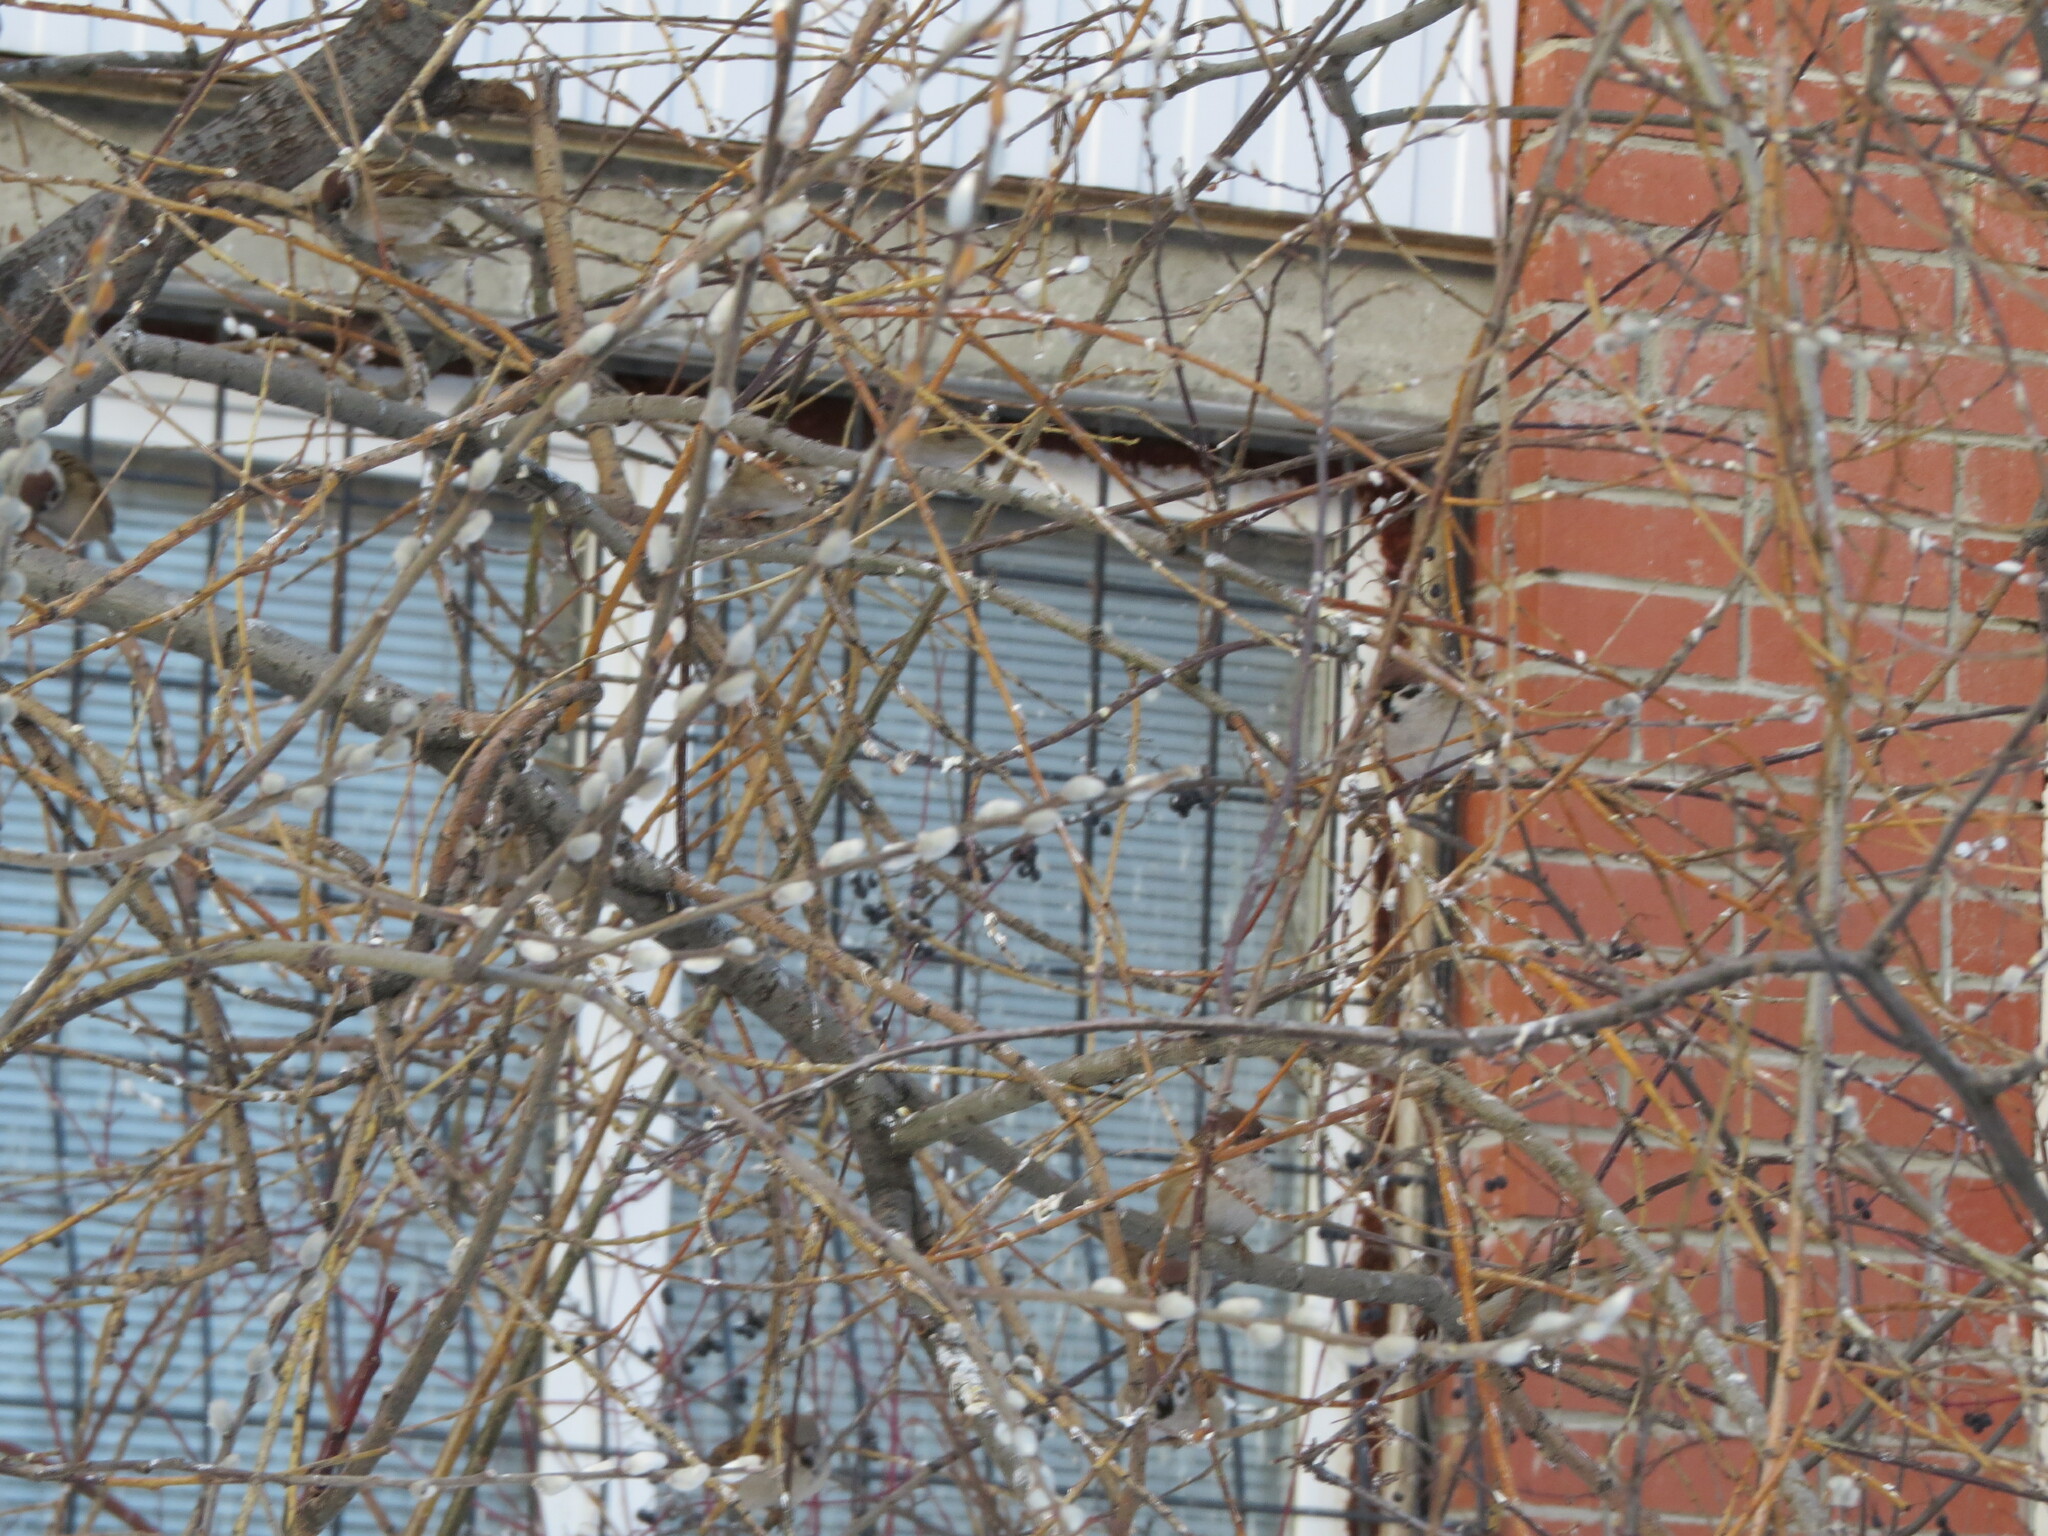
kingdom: Animalia
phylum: Chordata
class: Aves
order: Passeriformes
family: Passeridae
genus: Passer
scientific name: Passer montanus
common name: Eurasian tree sparrow
